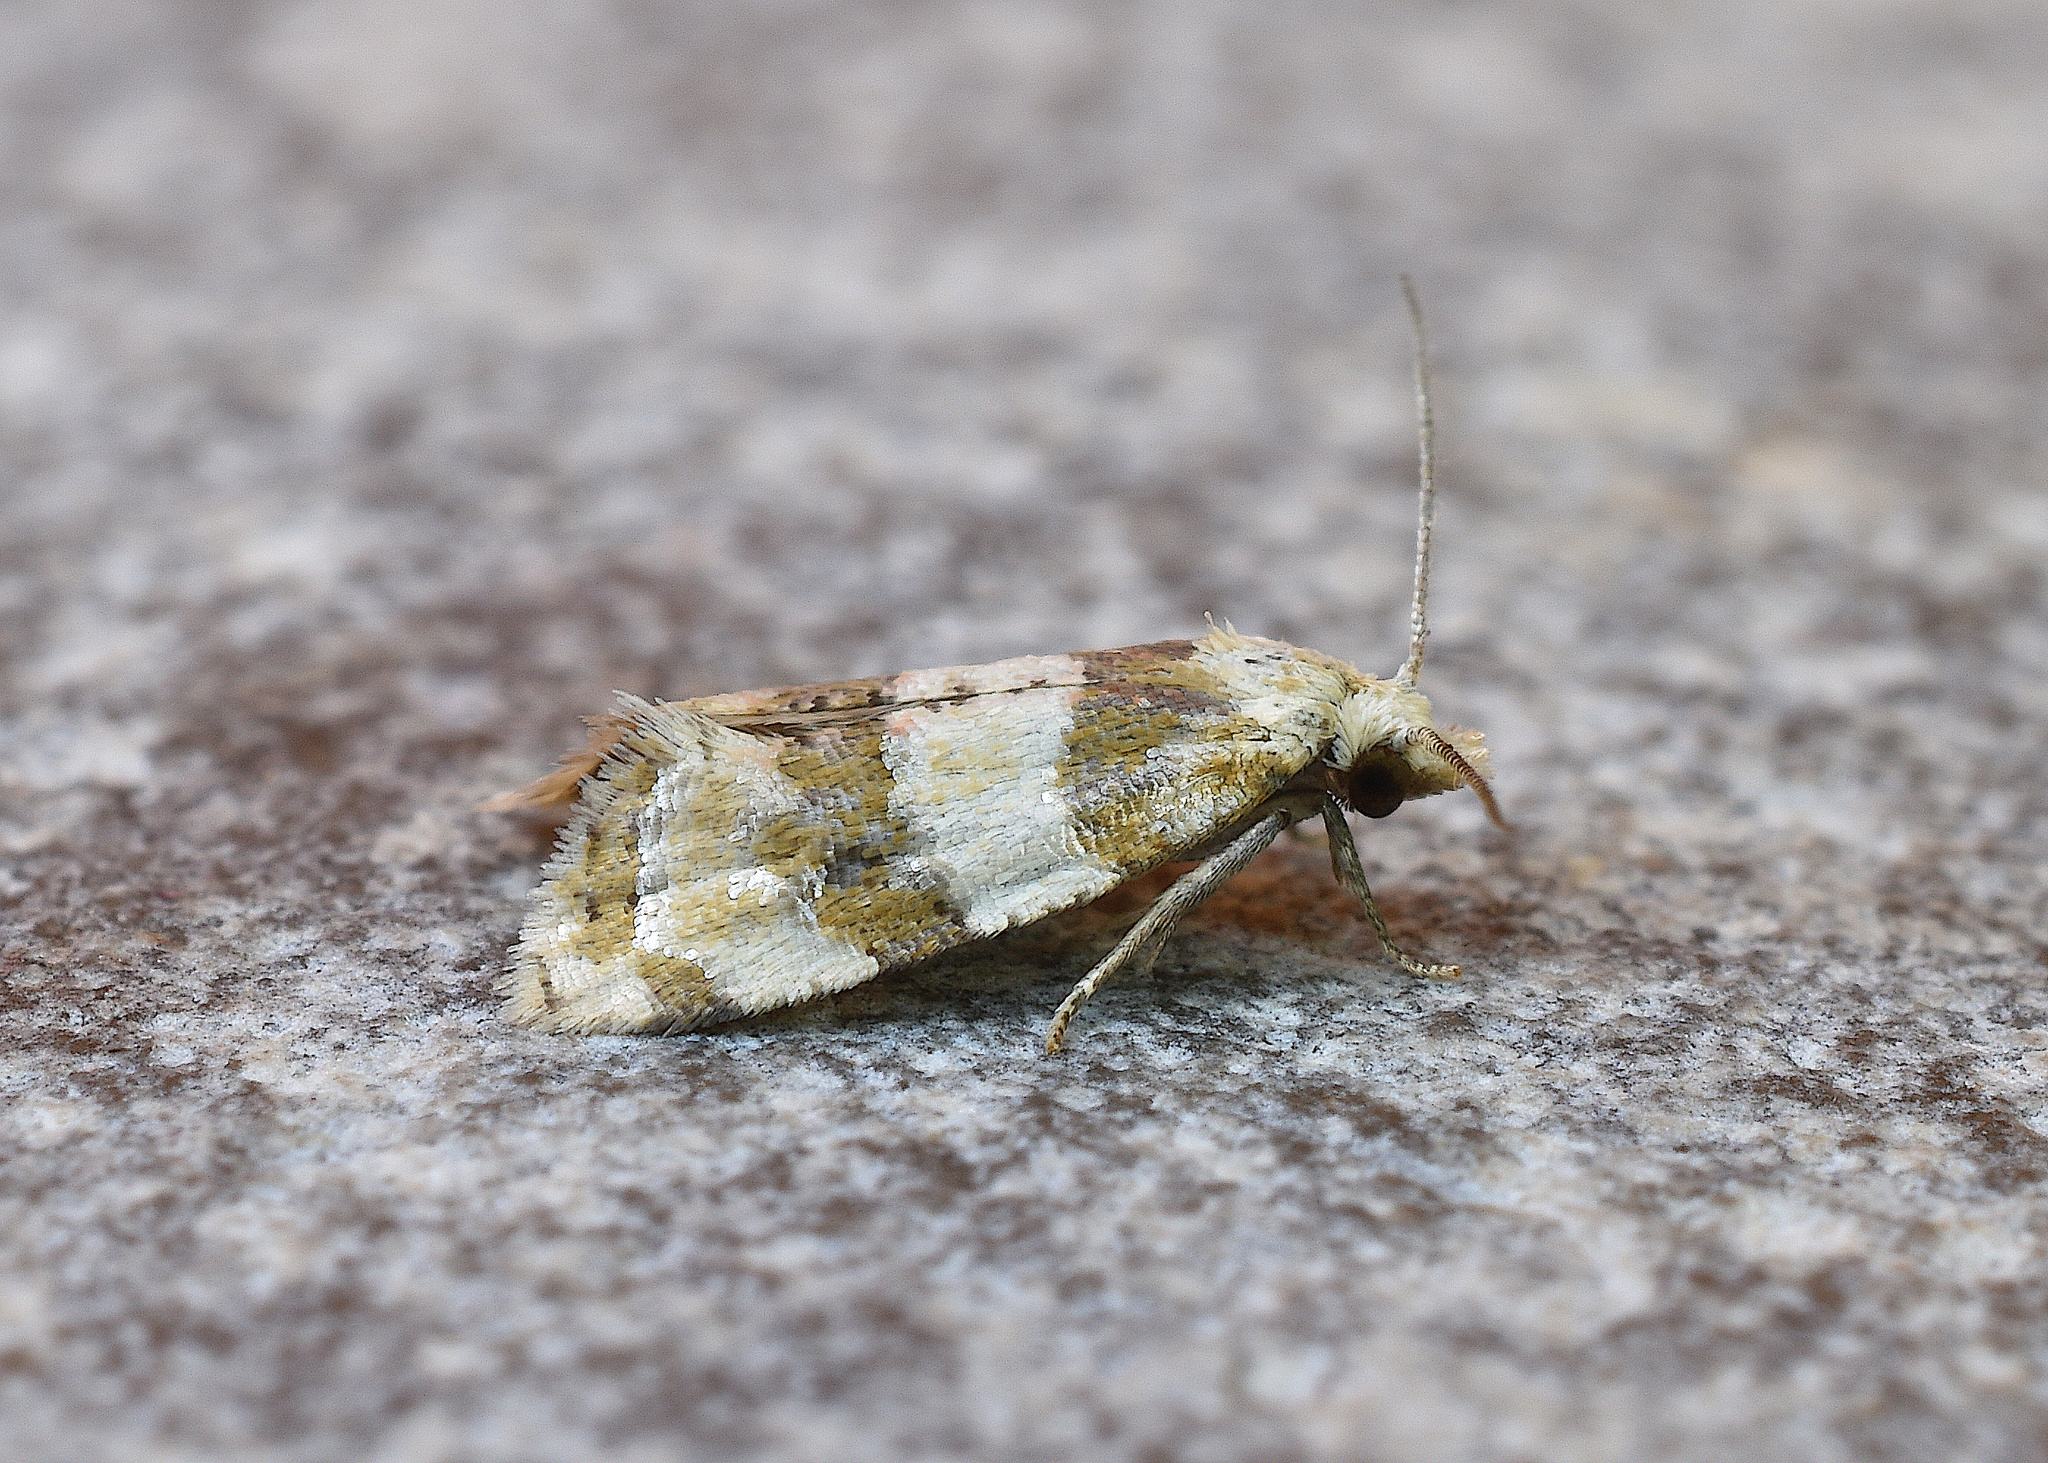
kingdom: Animalia
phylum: Arthropoda
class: Insecta
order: Lepidoptera
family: Tortricidae
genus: Aethes
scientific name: Aethes argentilimitana
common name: Silver-bordered aethes
